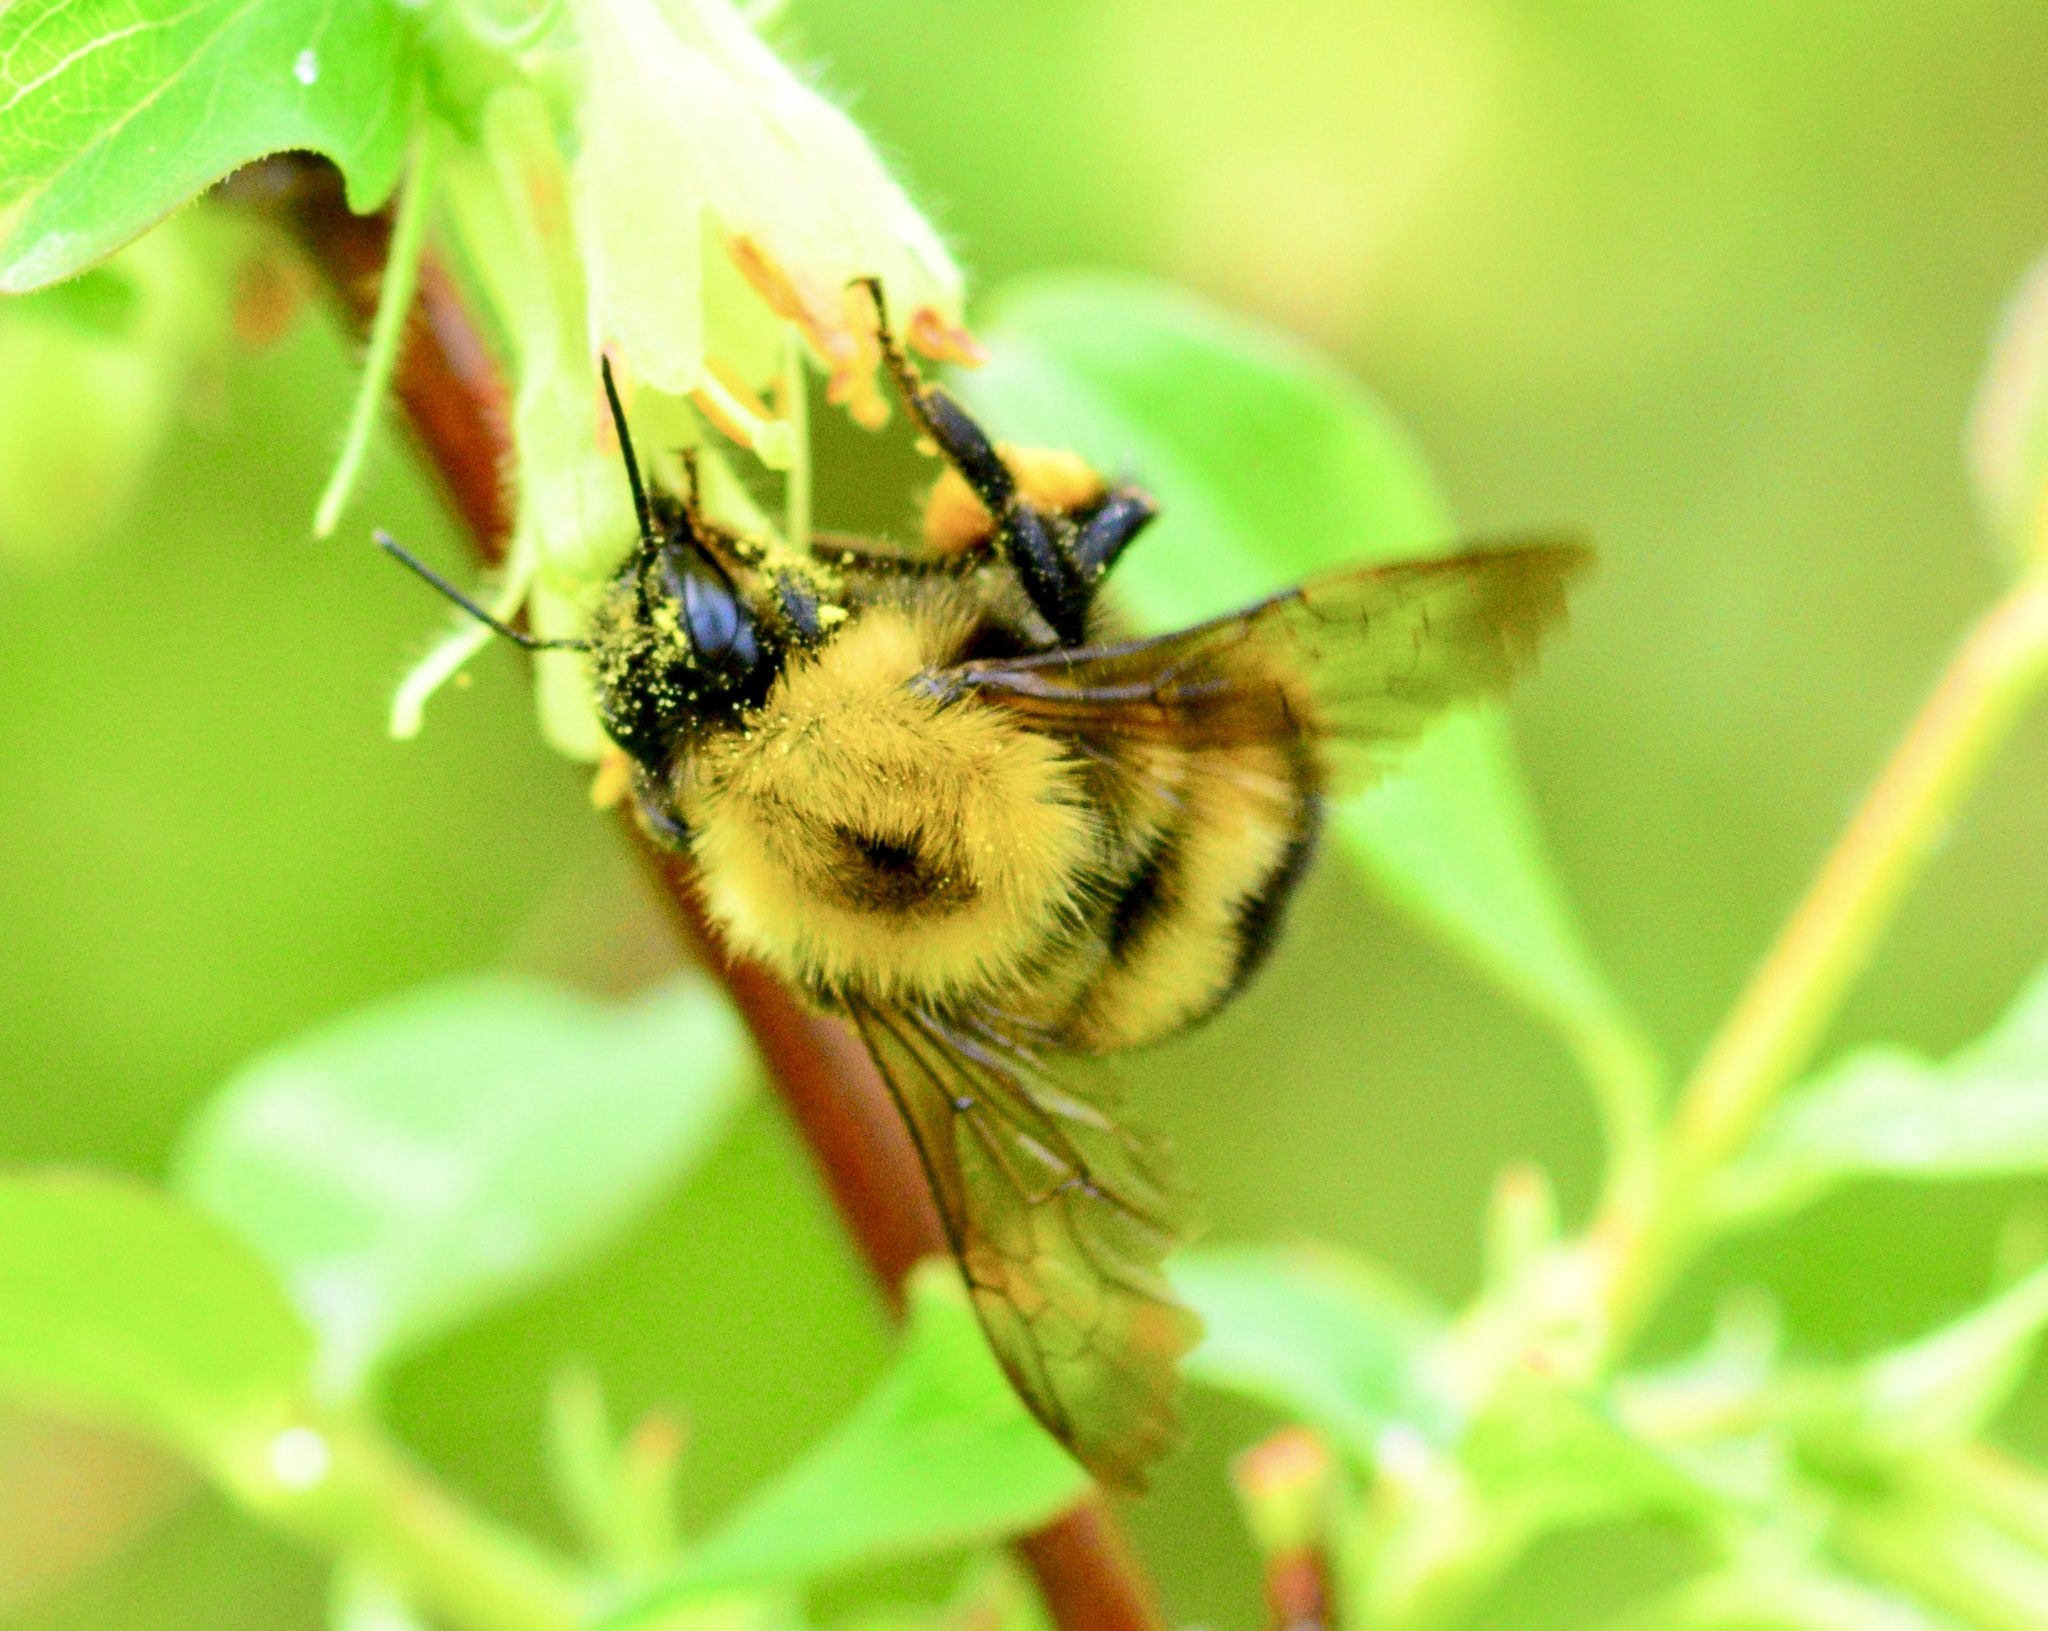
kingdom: Animalia
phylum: Arthropoda
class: Insecta
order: Hymenoptera
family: Apidae
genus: Bombus
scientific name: Bombus perplexus
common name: Confusing bumble bee
